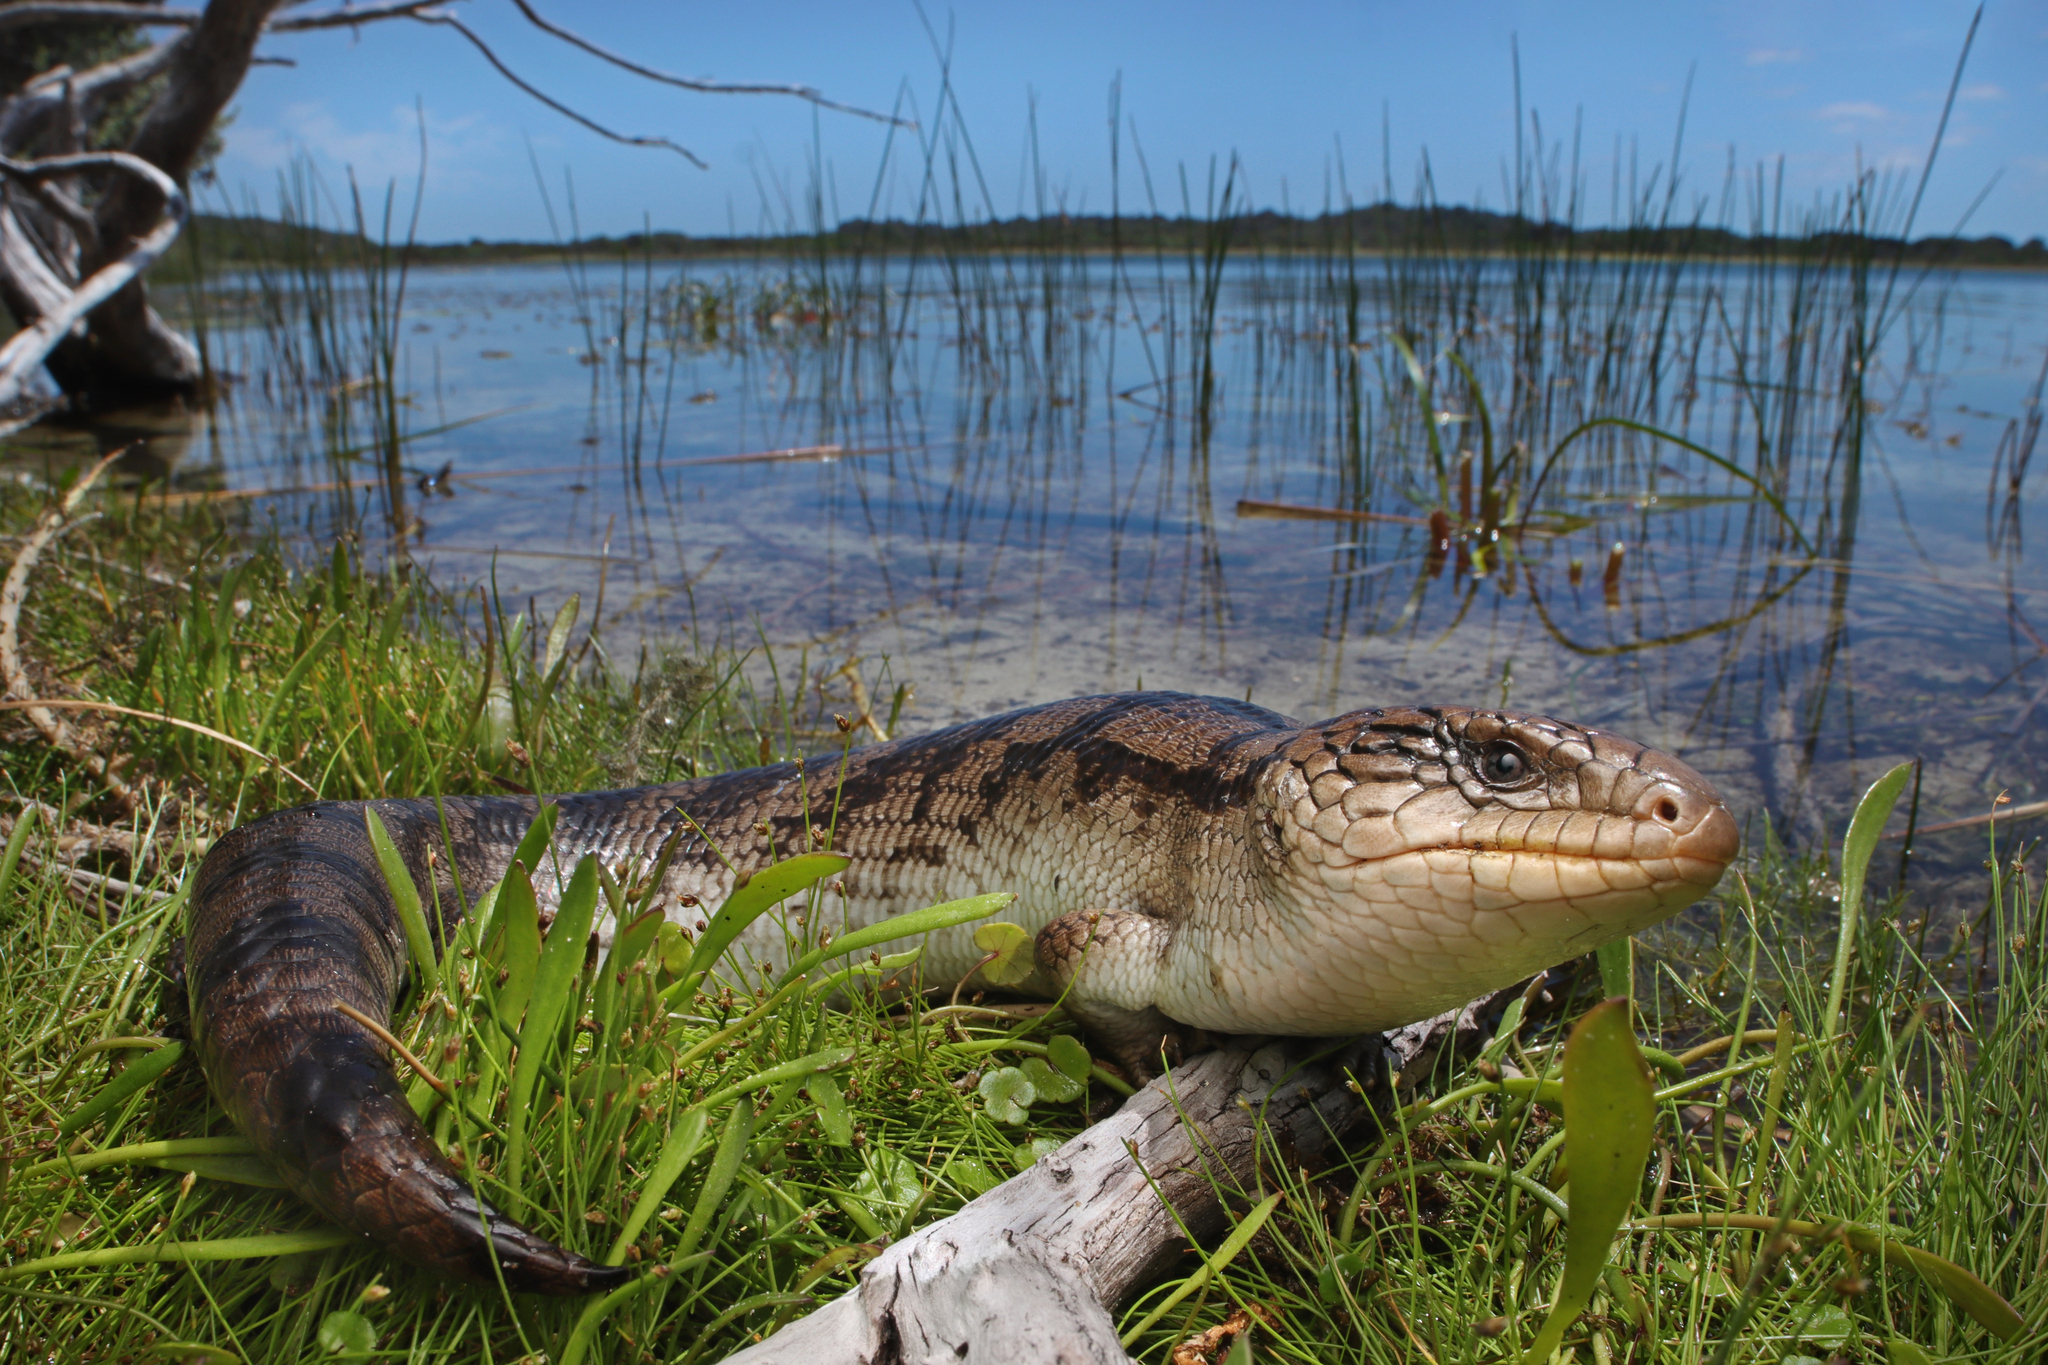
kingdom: Animalia
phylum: Chordata
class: Squamata
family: Scincidae
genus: Tiliqua
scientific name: Tiliqua nigrolutea
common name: Blotched blue-tongued lizard
